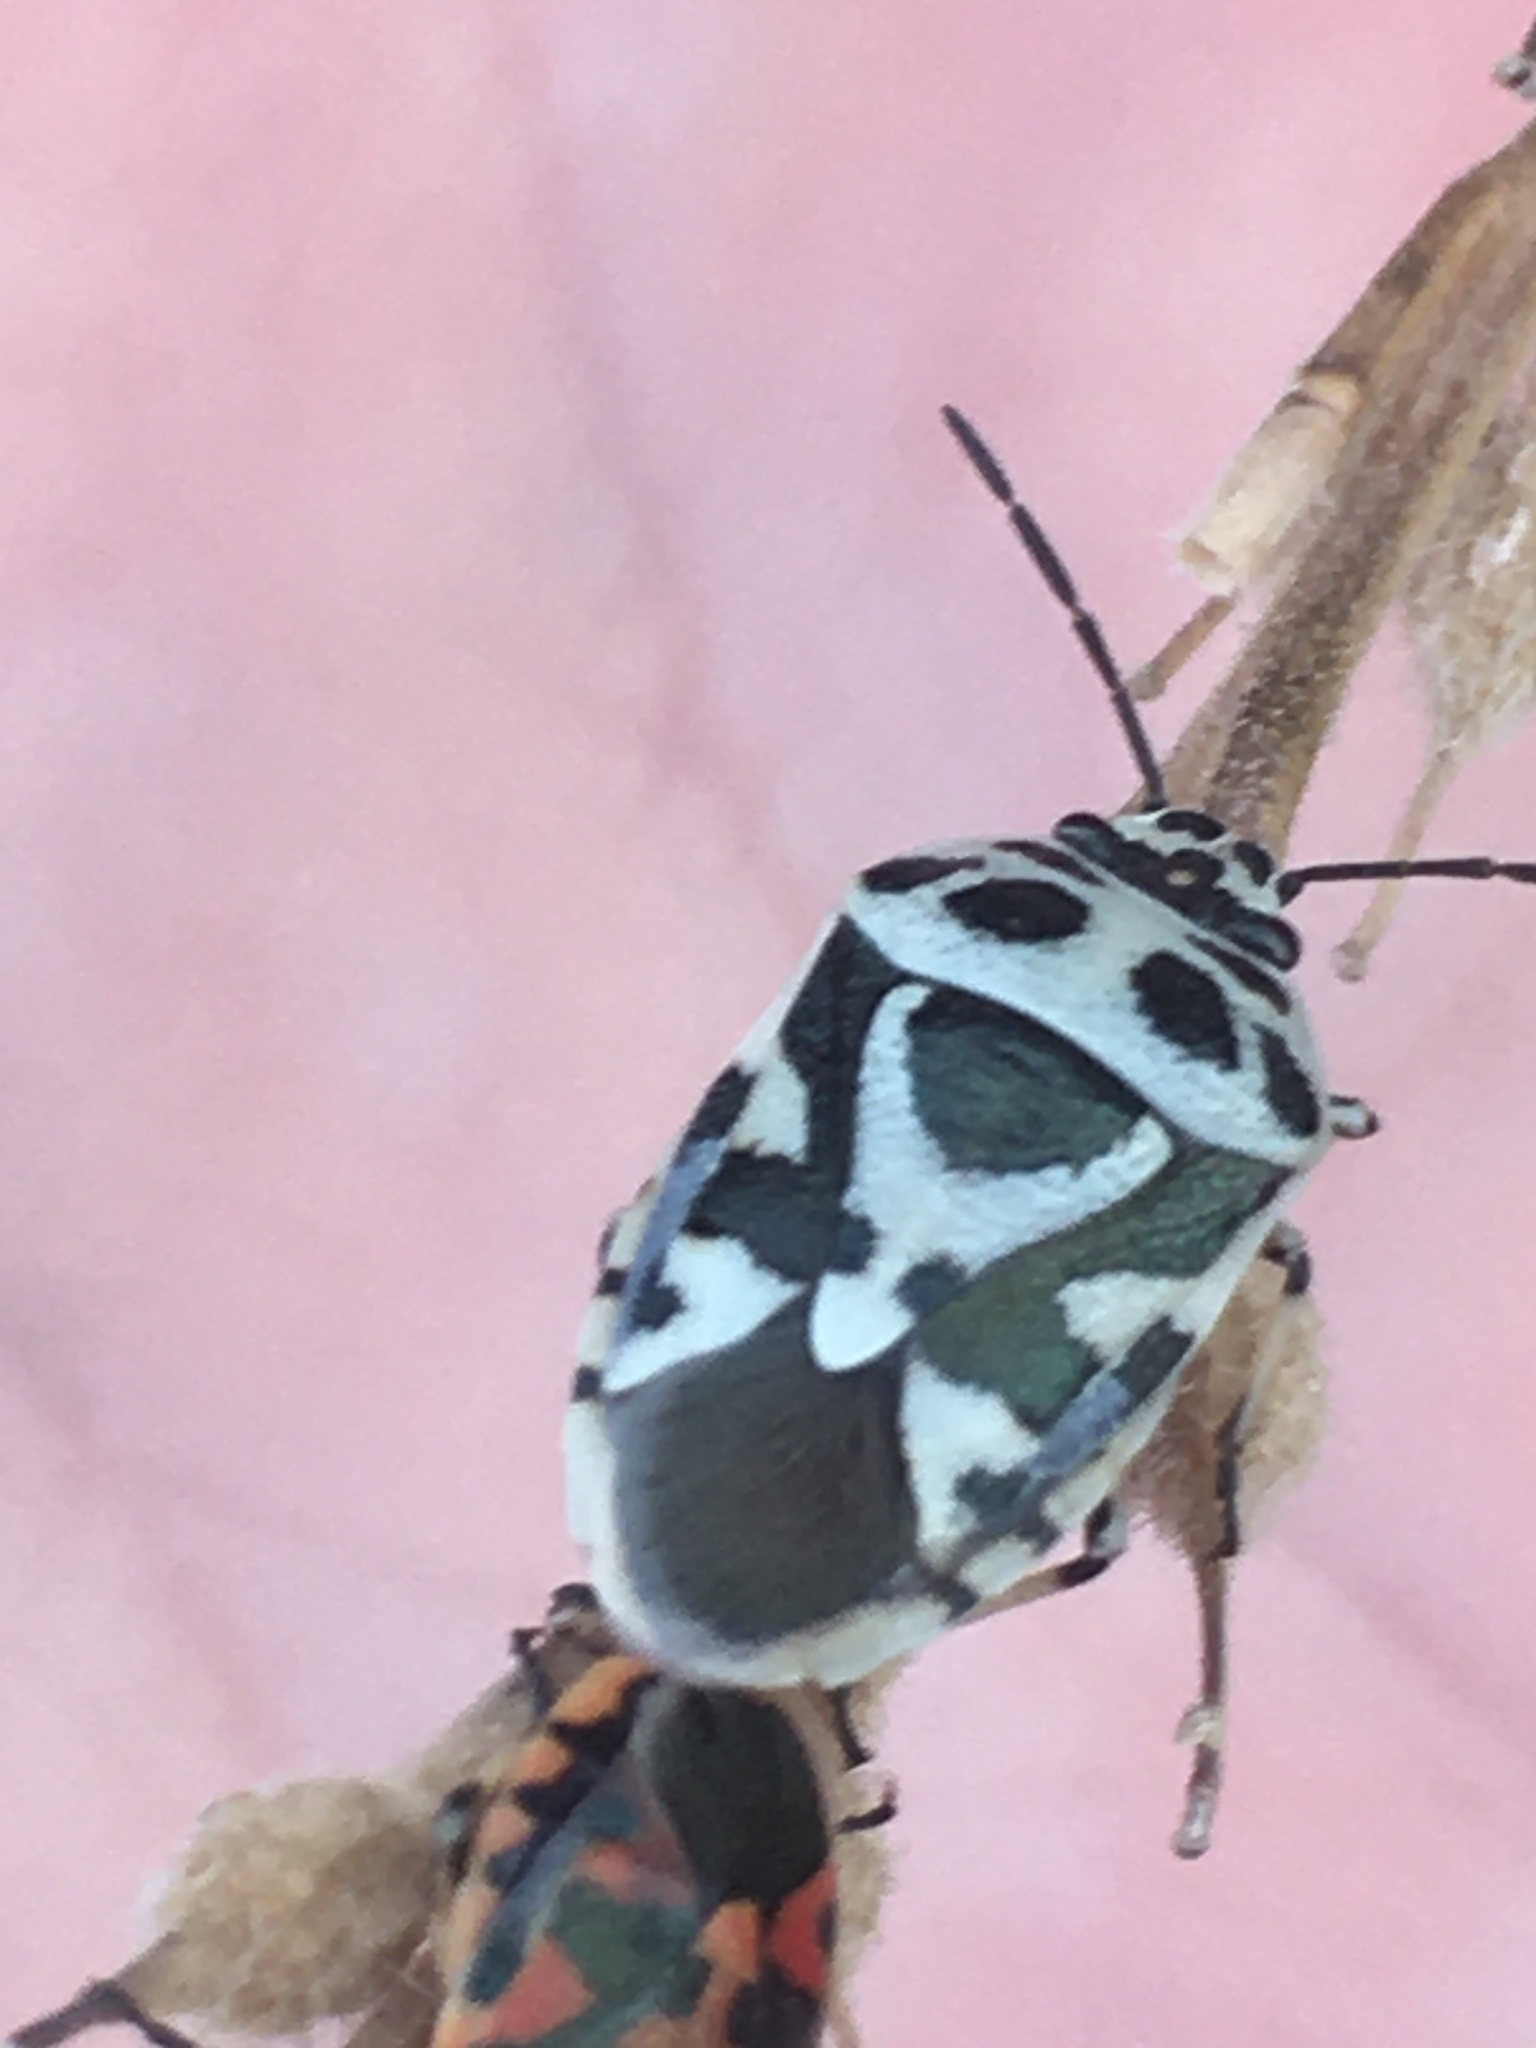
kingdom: Animalia
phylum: Arthropoda
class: Insecta
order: Hemiptera
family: Pentatomidae
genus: Eurydema
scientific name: Eurydema ornata
